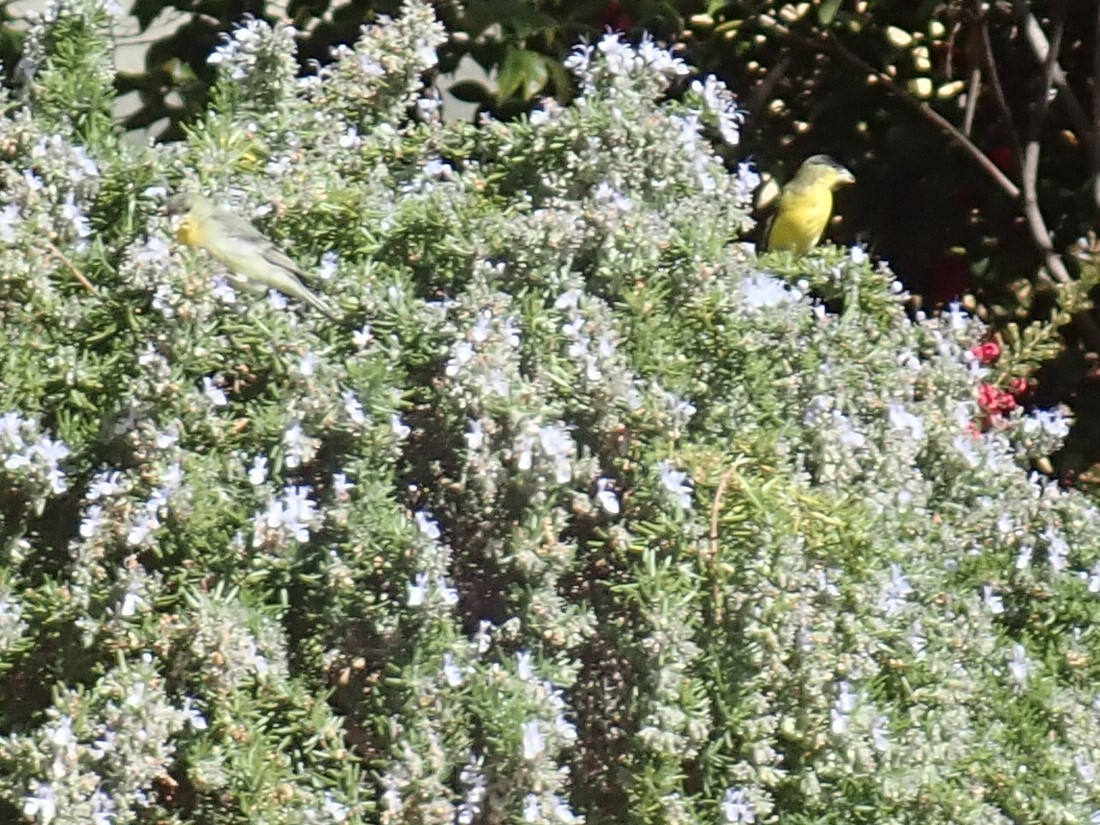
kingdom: Animalia
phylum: Chordata
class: Aves
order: Passeriformes
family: Fringillidae
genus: Spinus
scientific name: Spinus psaltria
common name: Lesser goldfinch
